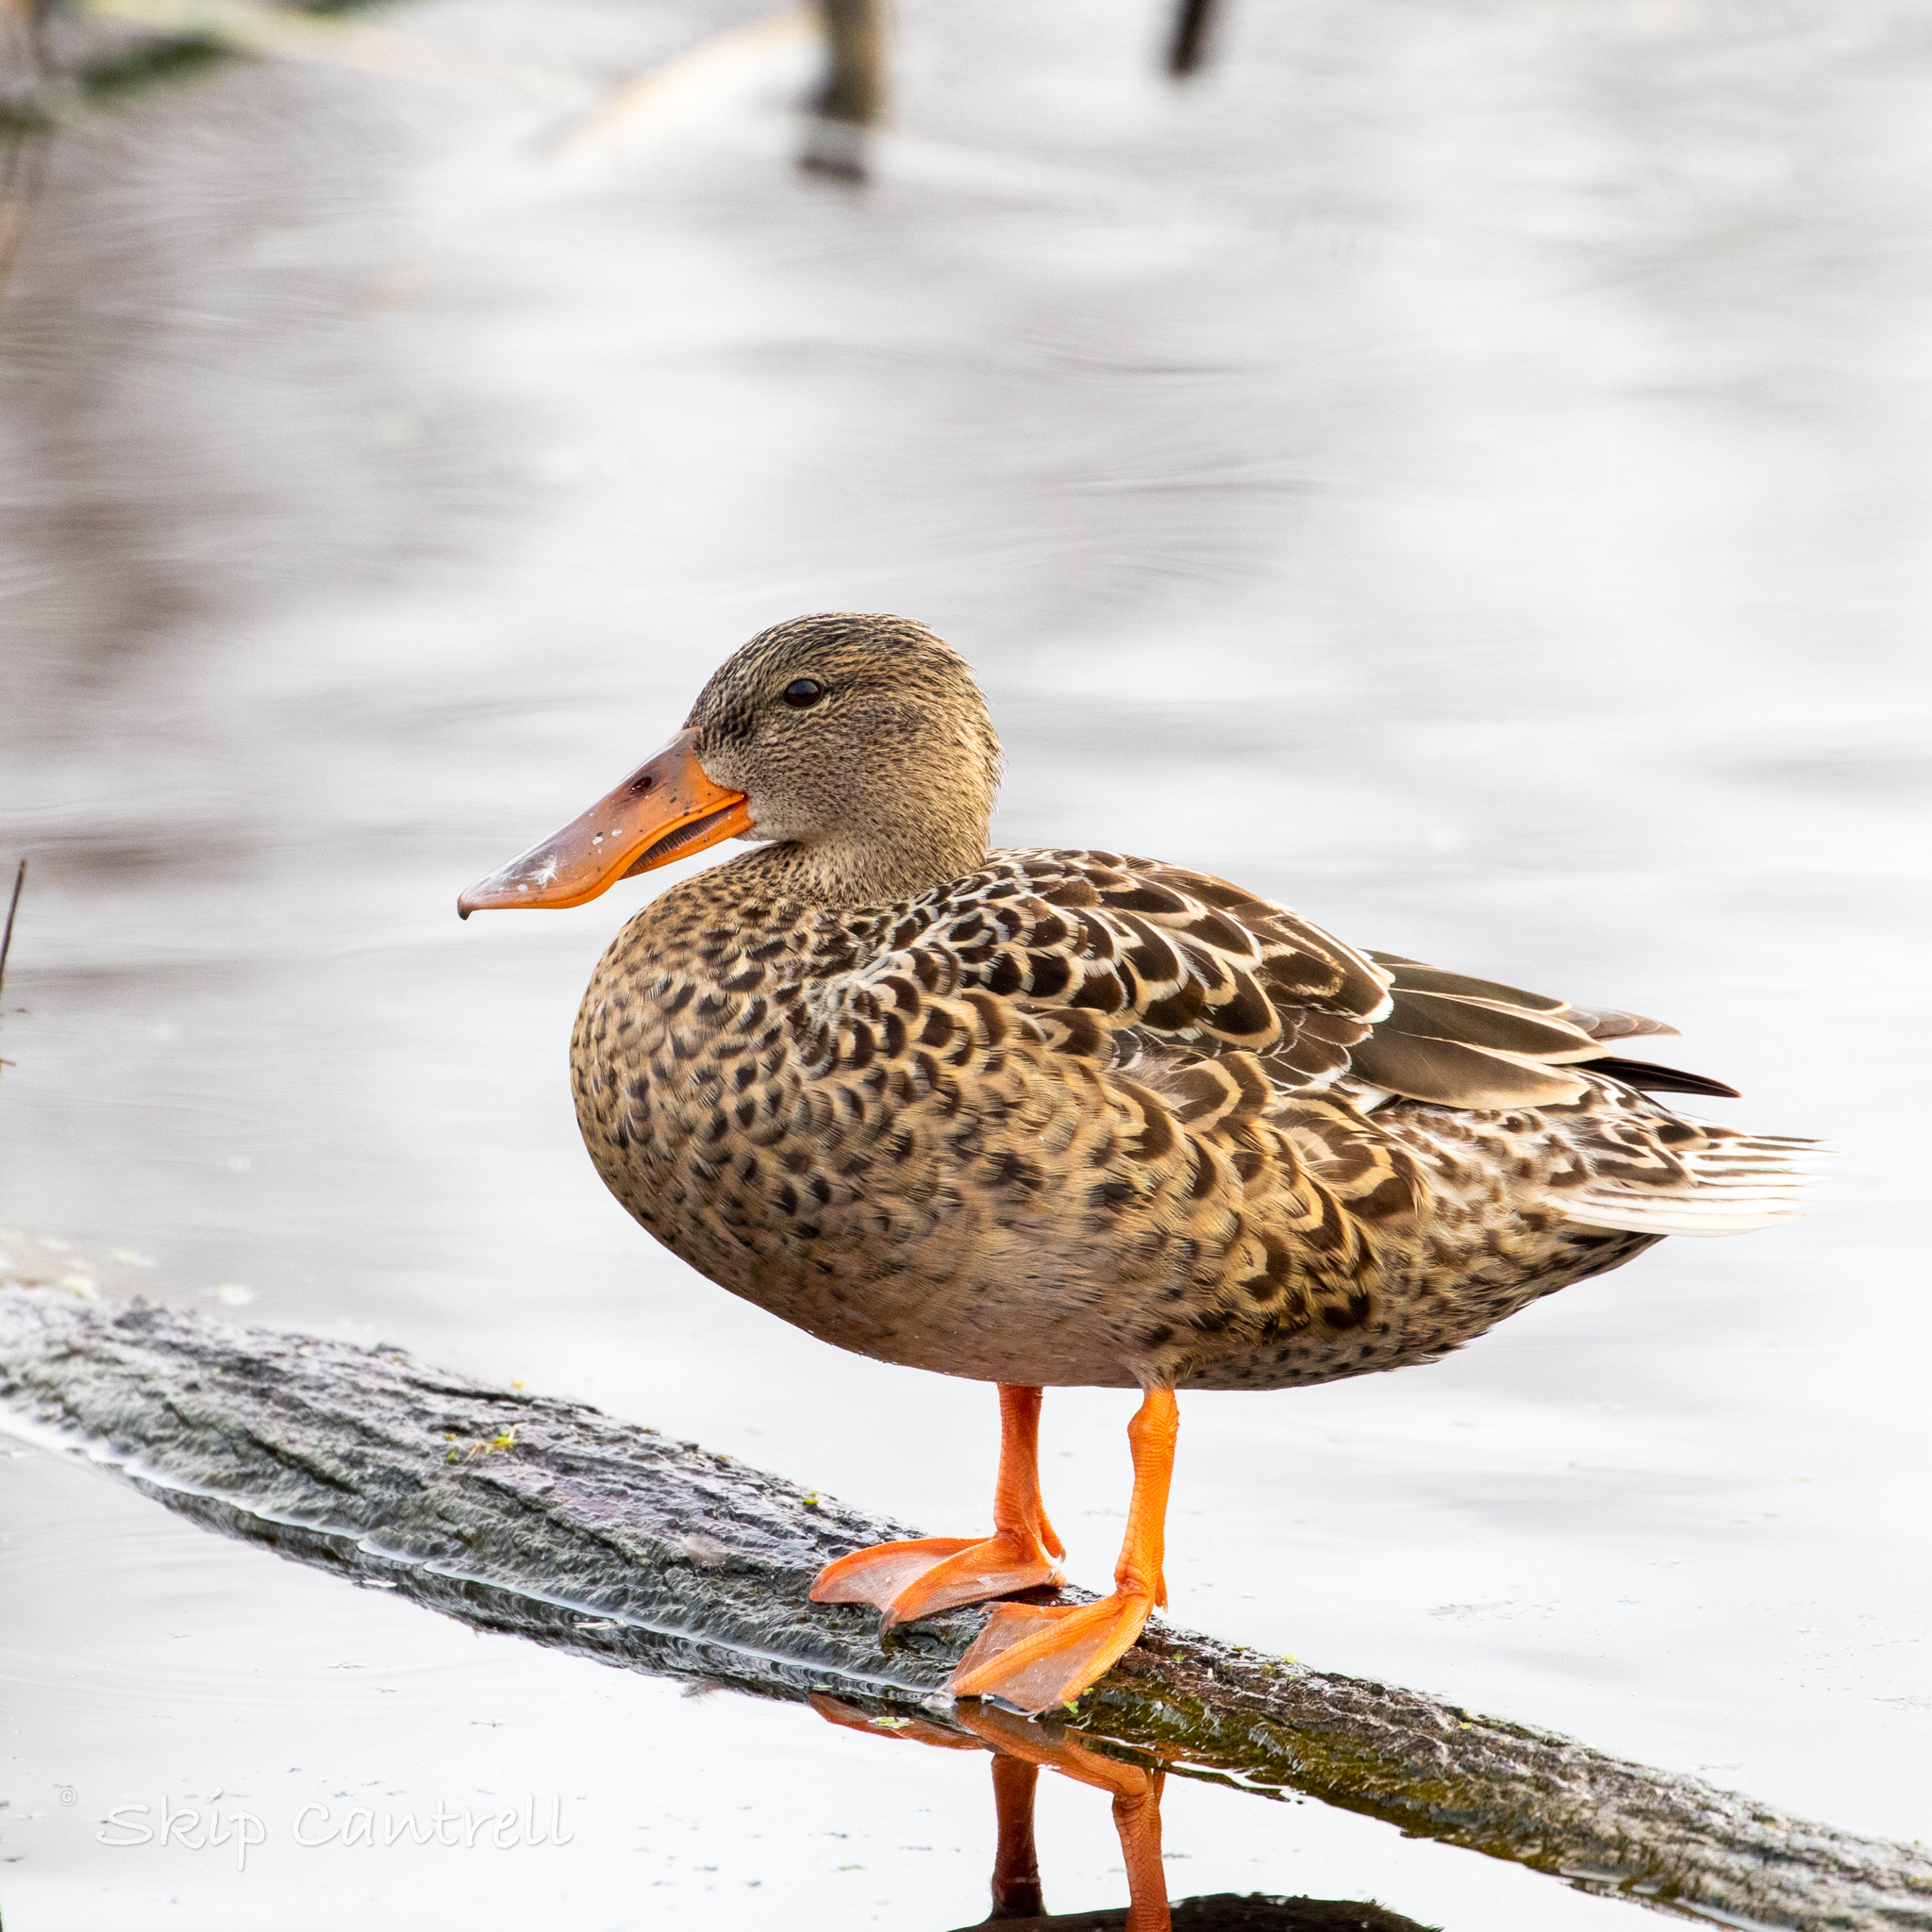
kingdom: Animalia
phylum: Chordata
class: Aves
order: Anseriformes
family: Anatidae
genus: Spatula
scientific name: Spatula clypeata
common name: Northern shoveler
